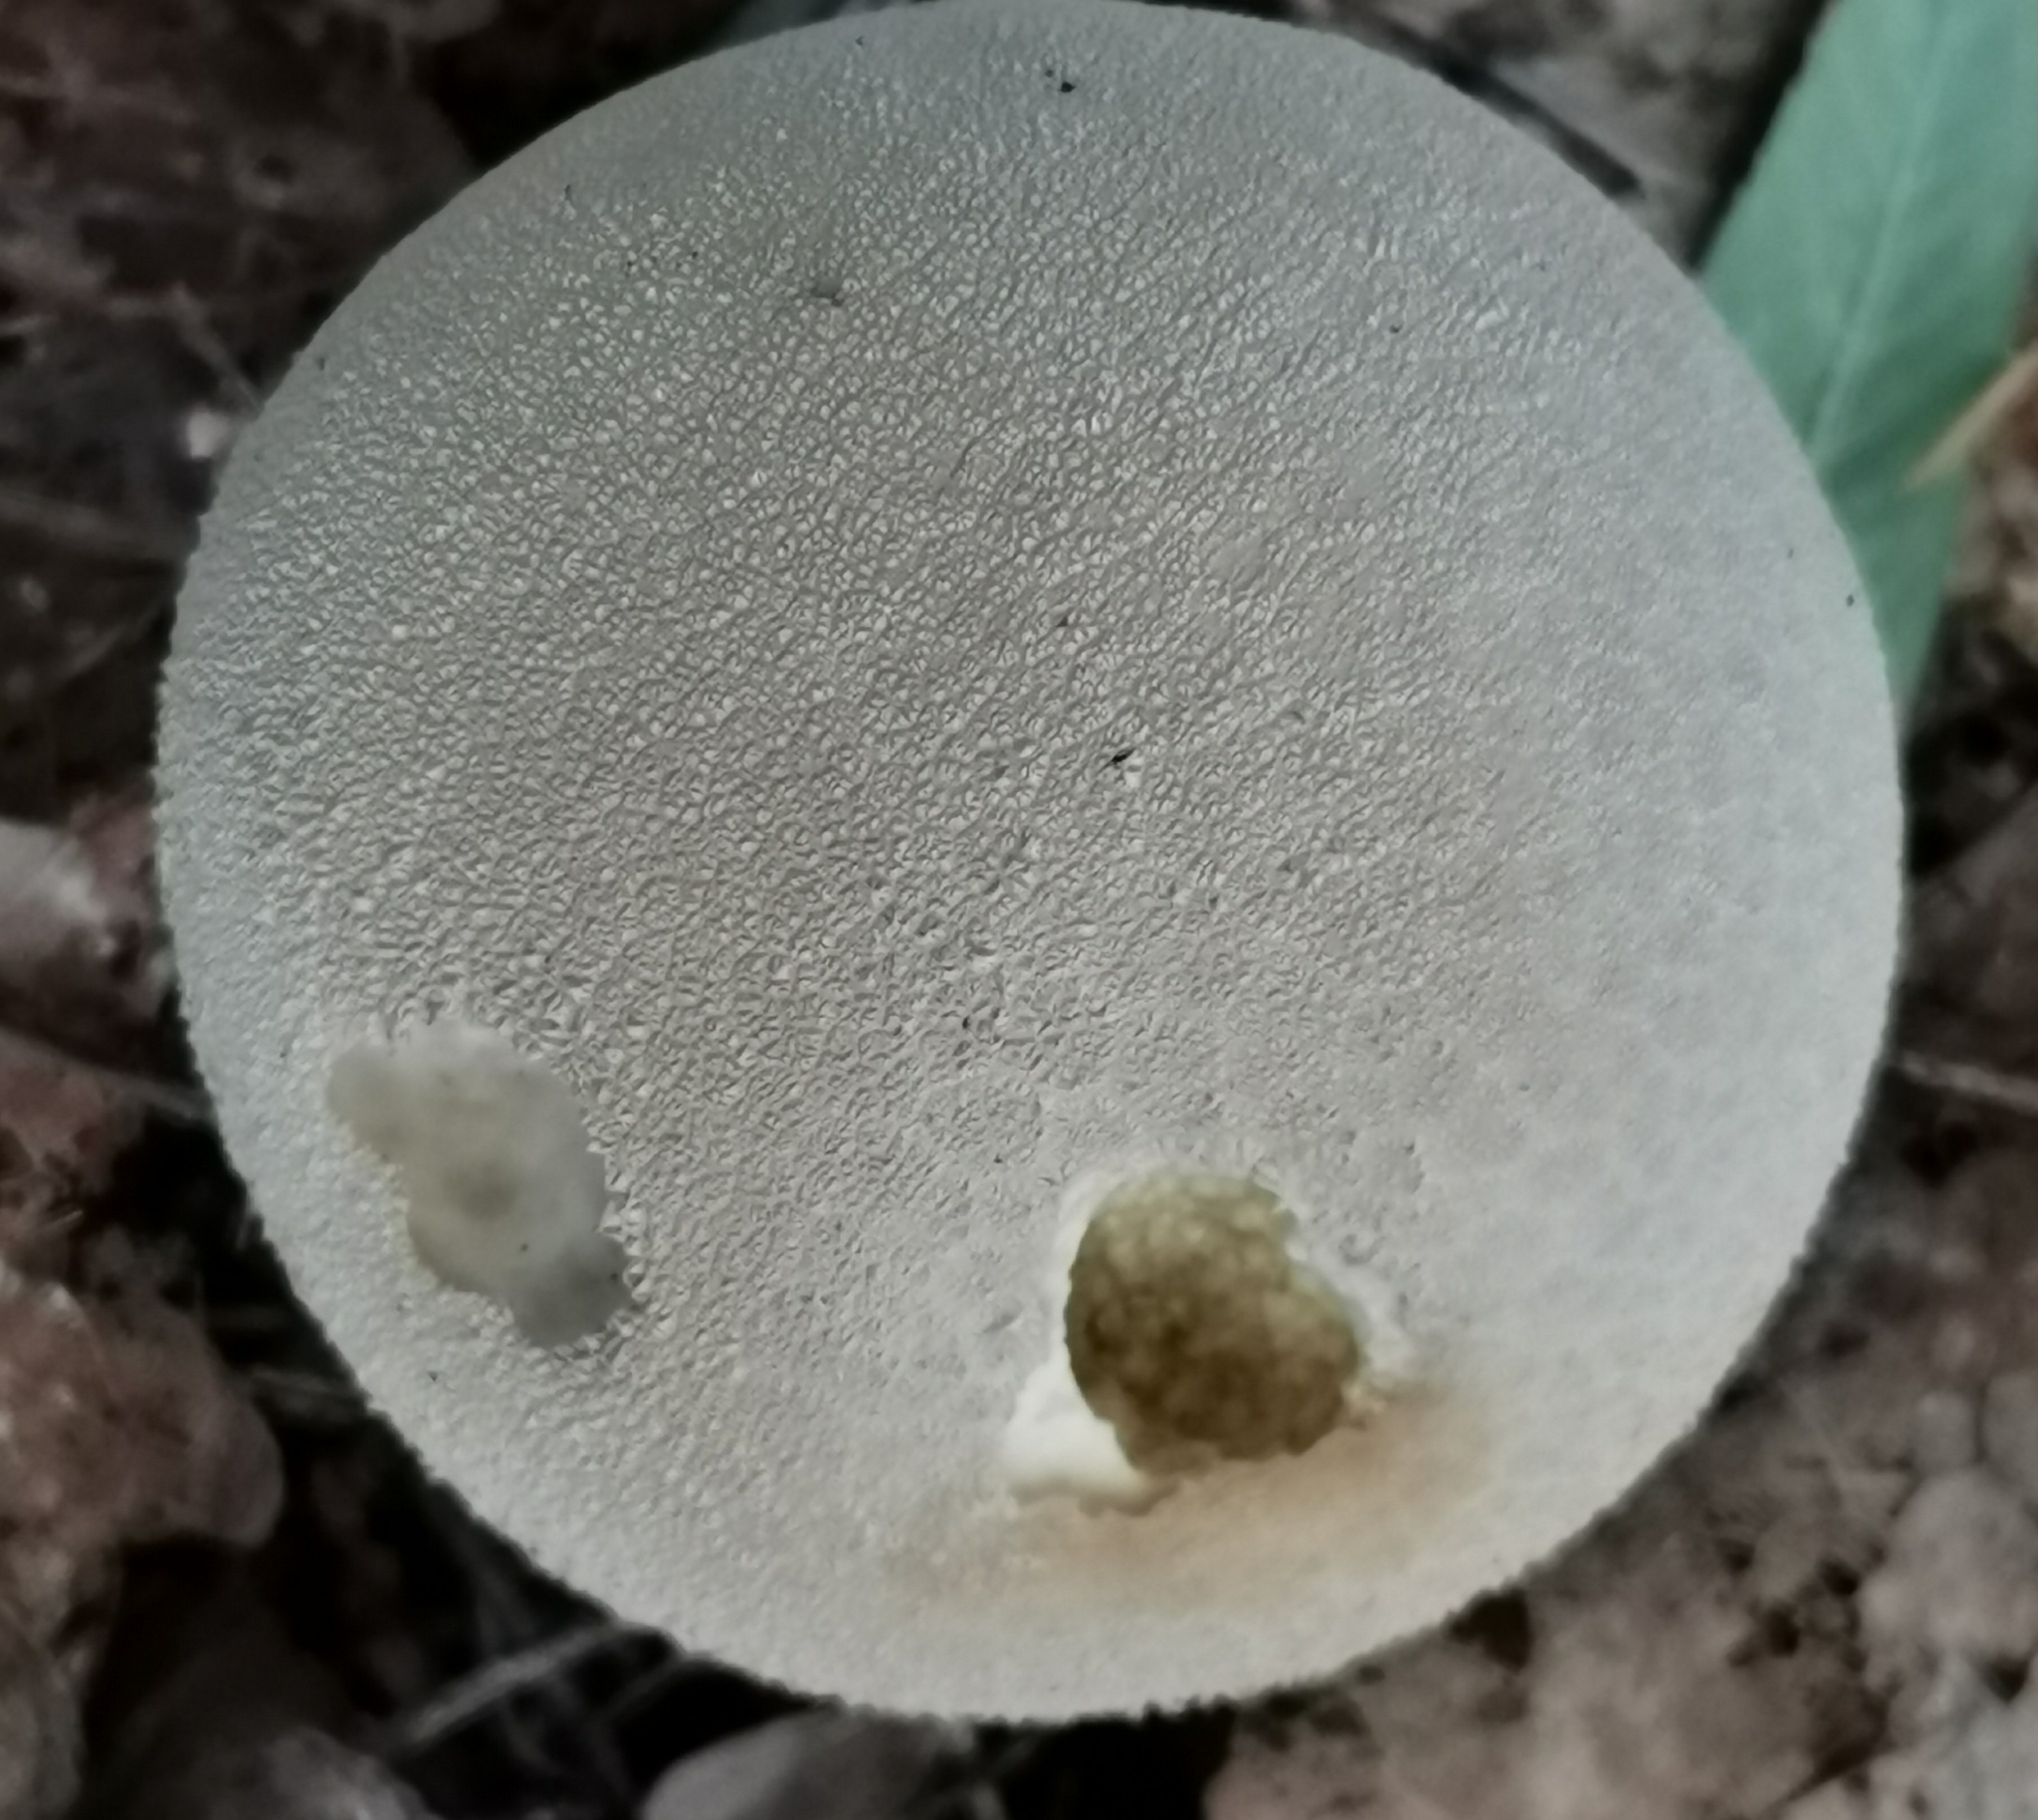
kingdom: Fungi
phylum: Basidiomycota
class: Agaricomycetes
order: Agaricales
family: Lycoperdaceae
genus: Lycoperdon
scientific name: Lycoperdon excipuliforme
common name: Pestle puffball
